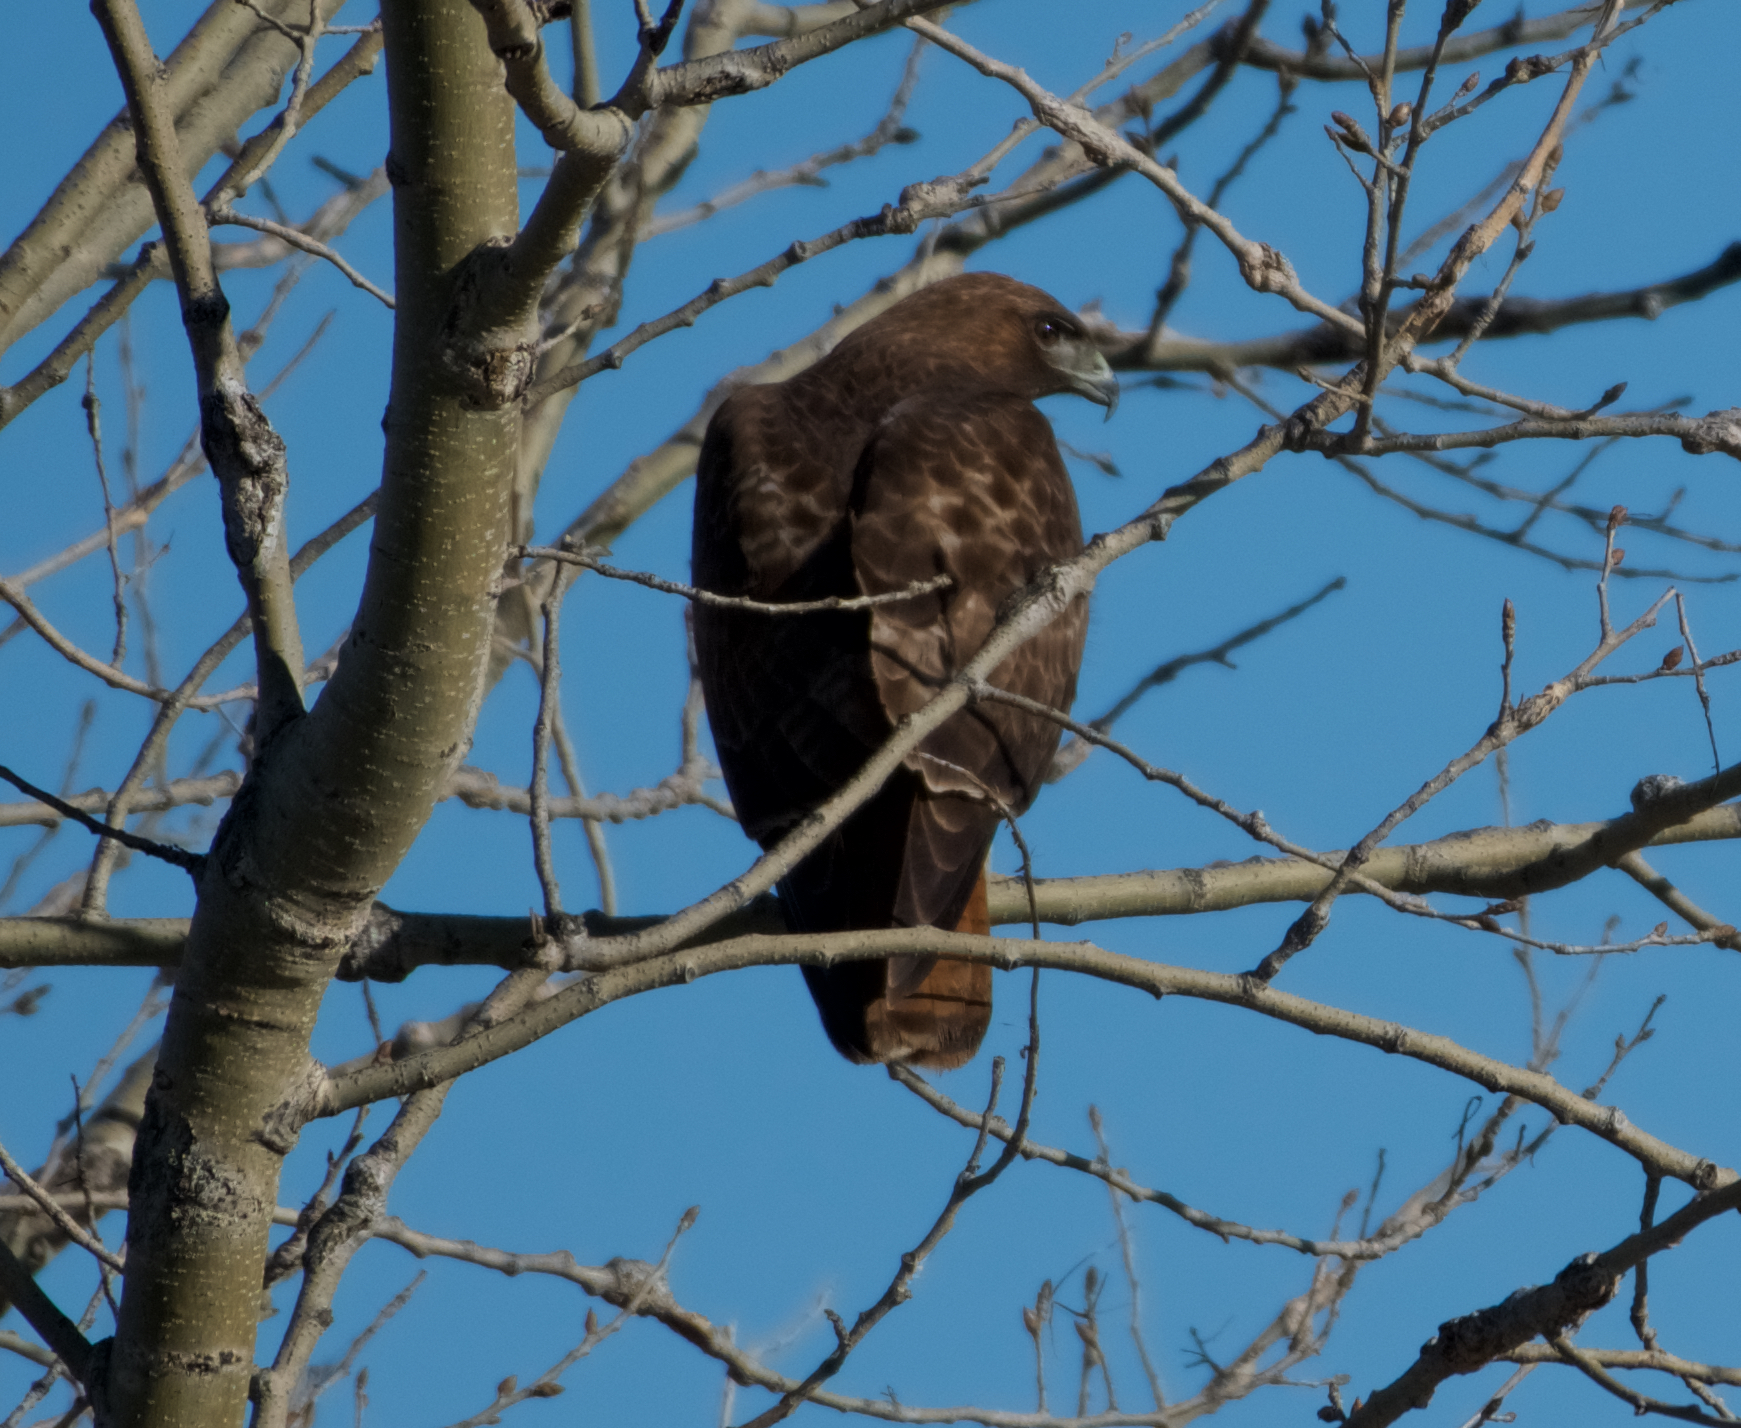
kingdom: Animalia
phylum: Chordata
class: Aves
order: Accipitriformes
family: Accipitridae
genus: Buteo
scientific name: Buteo jamaicensis
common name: Red-tailed hawk
